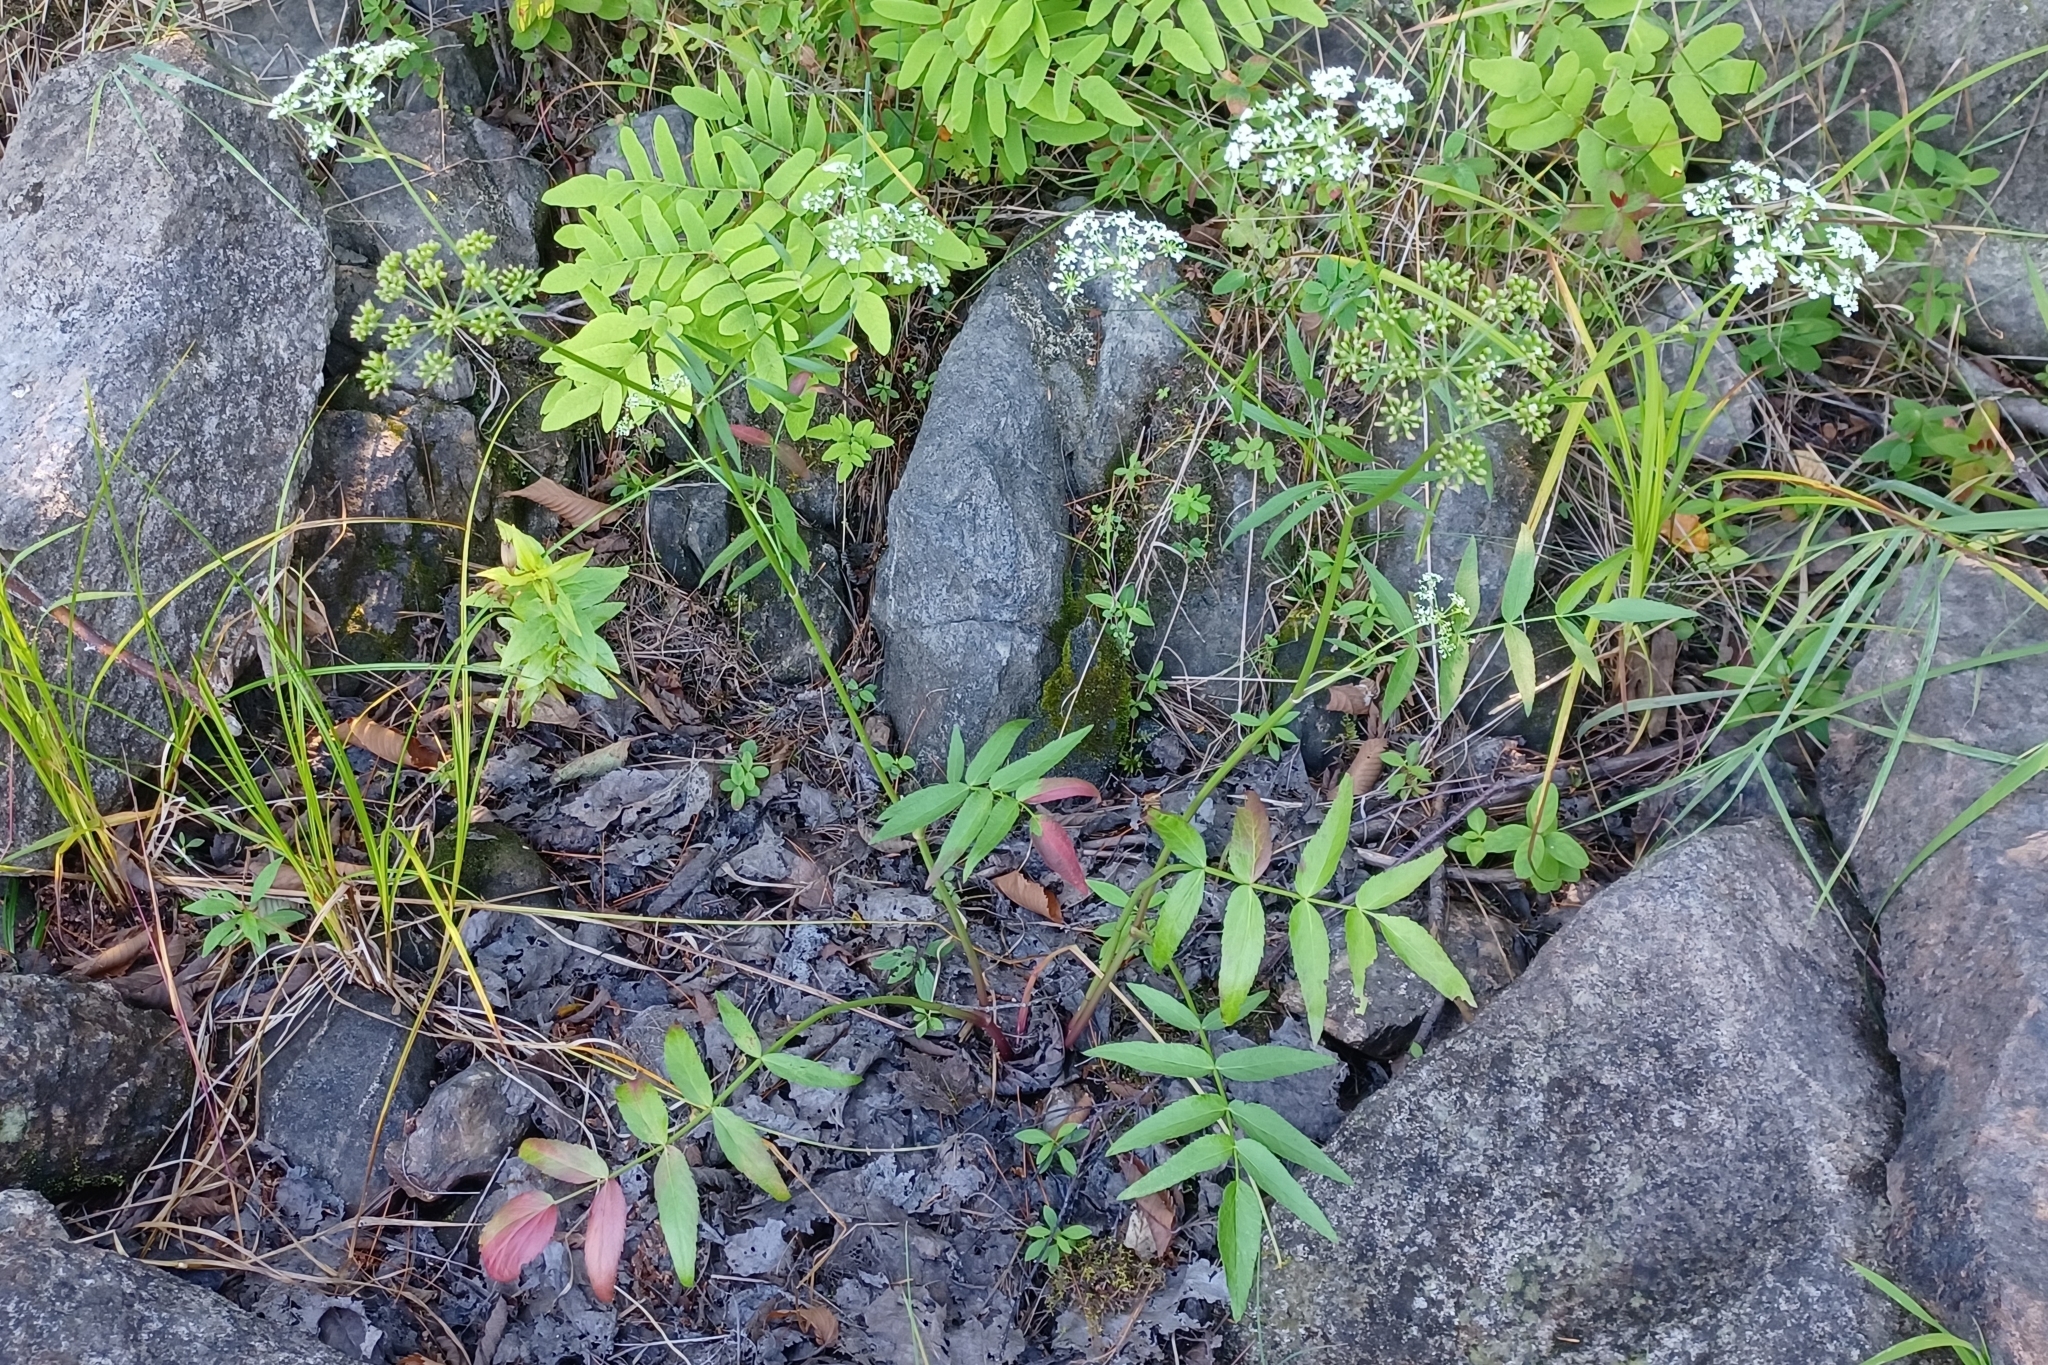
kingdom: Plantae
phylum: Tracheophyta
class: Magnoliopsida
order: Apiales
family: Apiaceae
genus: Sium
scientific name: Sium suave
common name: Hemlock water-parsnip
